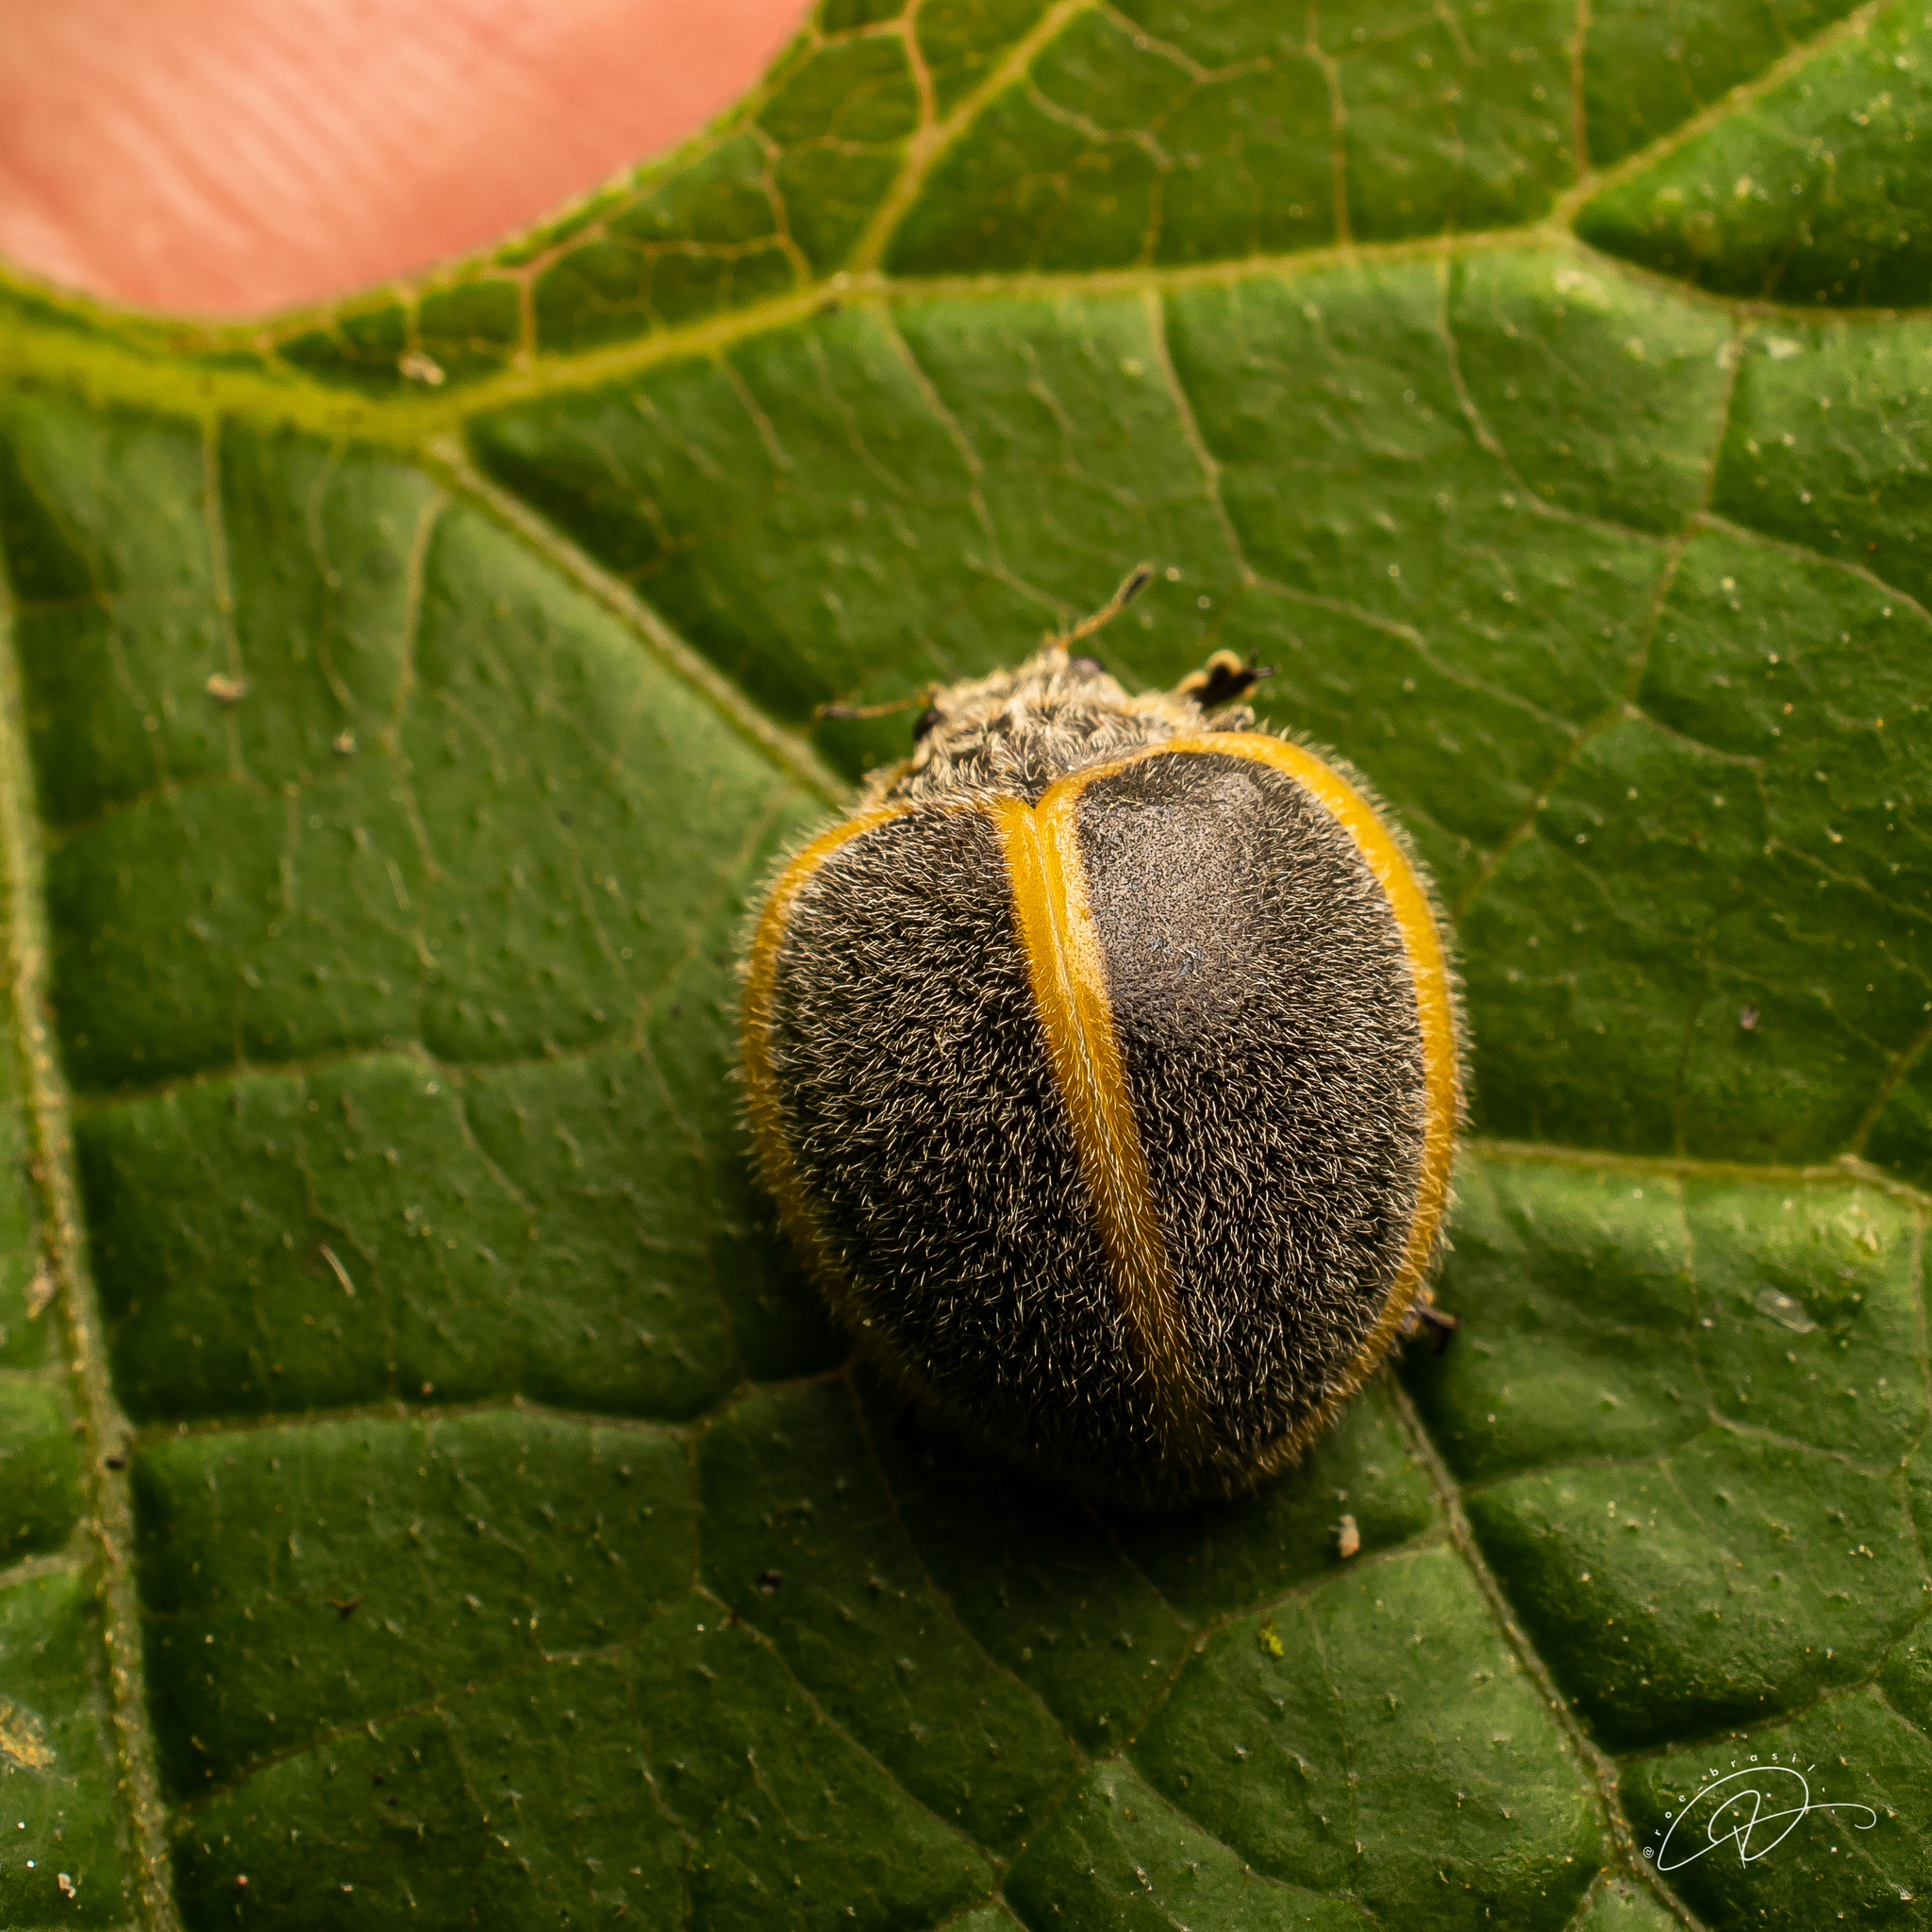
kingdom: Animalia
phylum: Arthropoda
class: Insecta
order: Coleoptera
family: Coccinellidae
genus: Epilachna
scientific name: Epilachna
